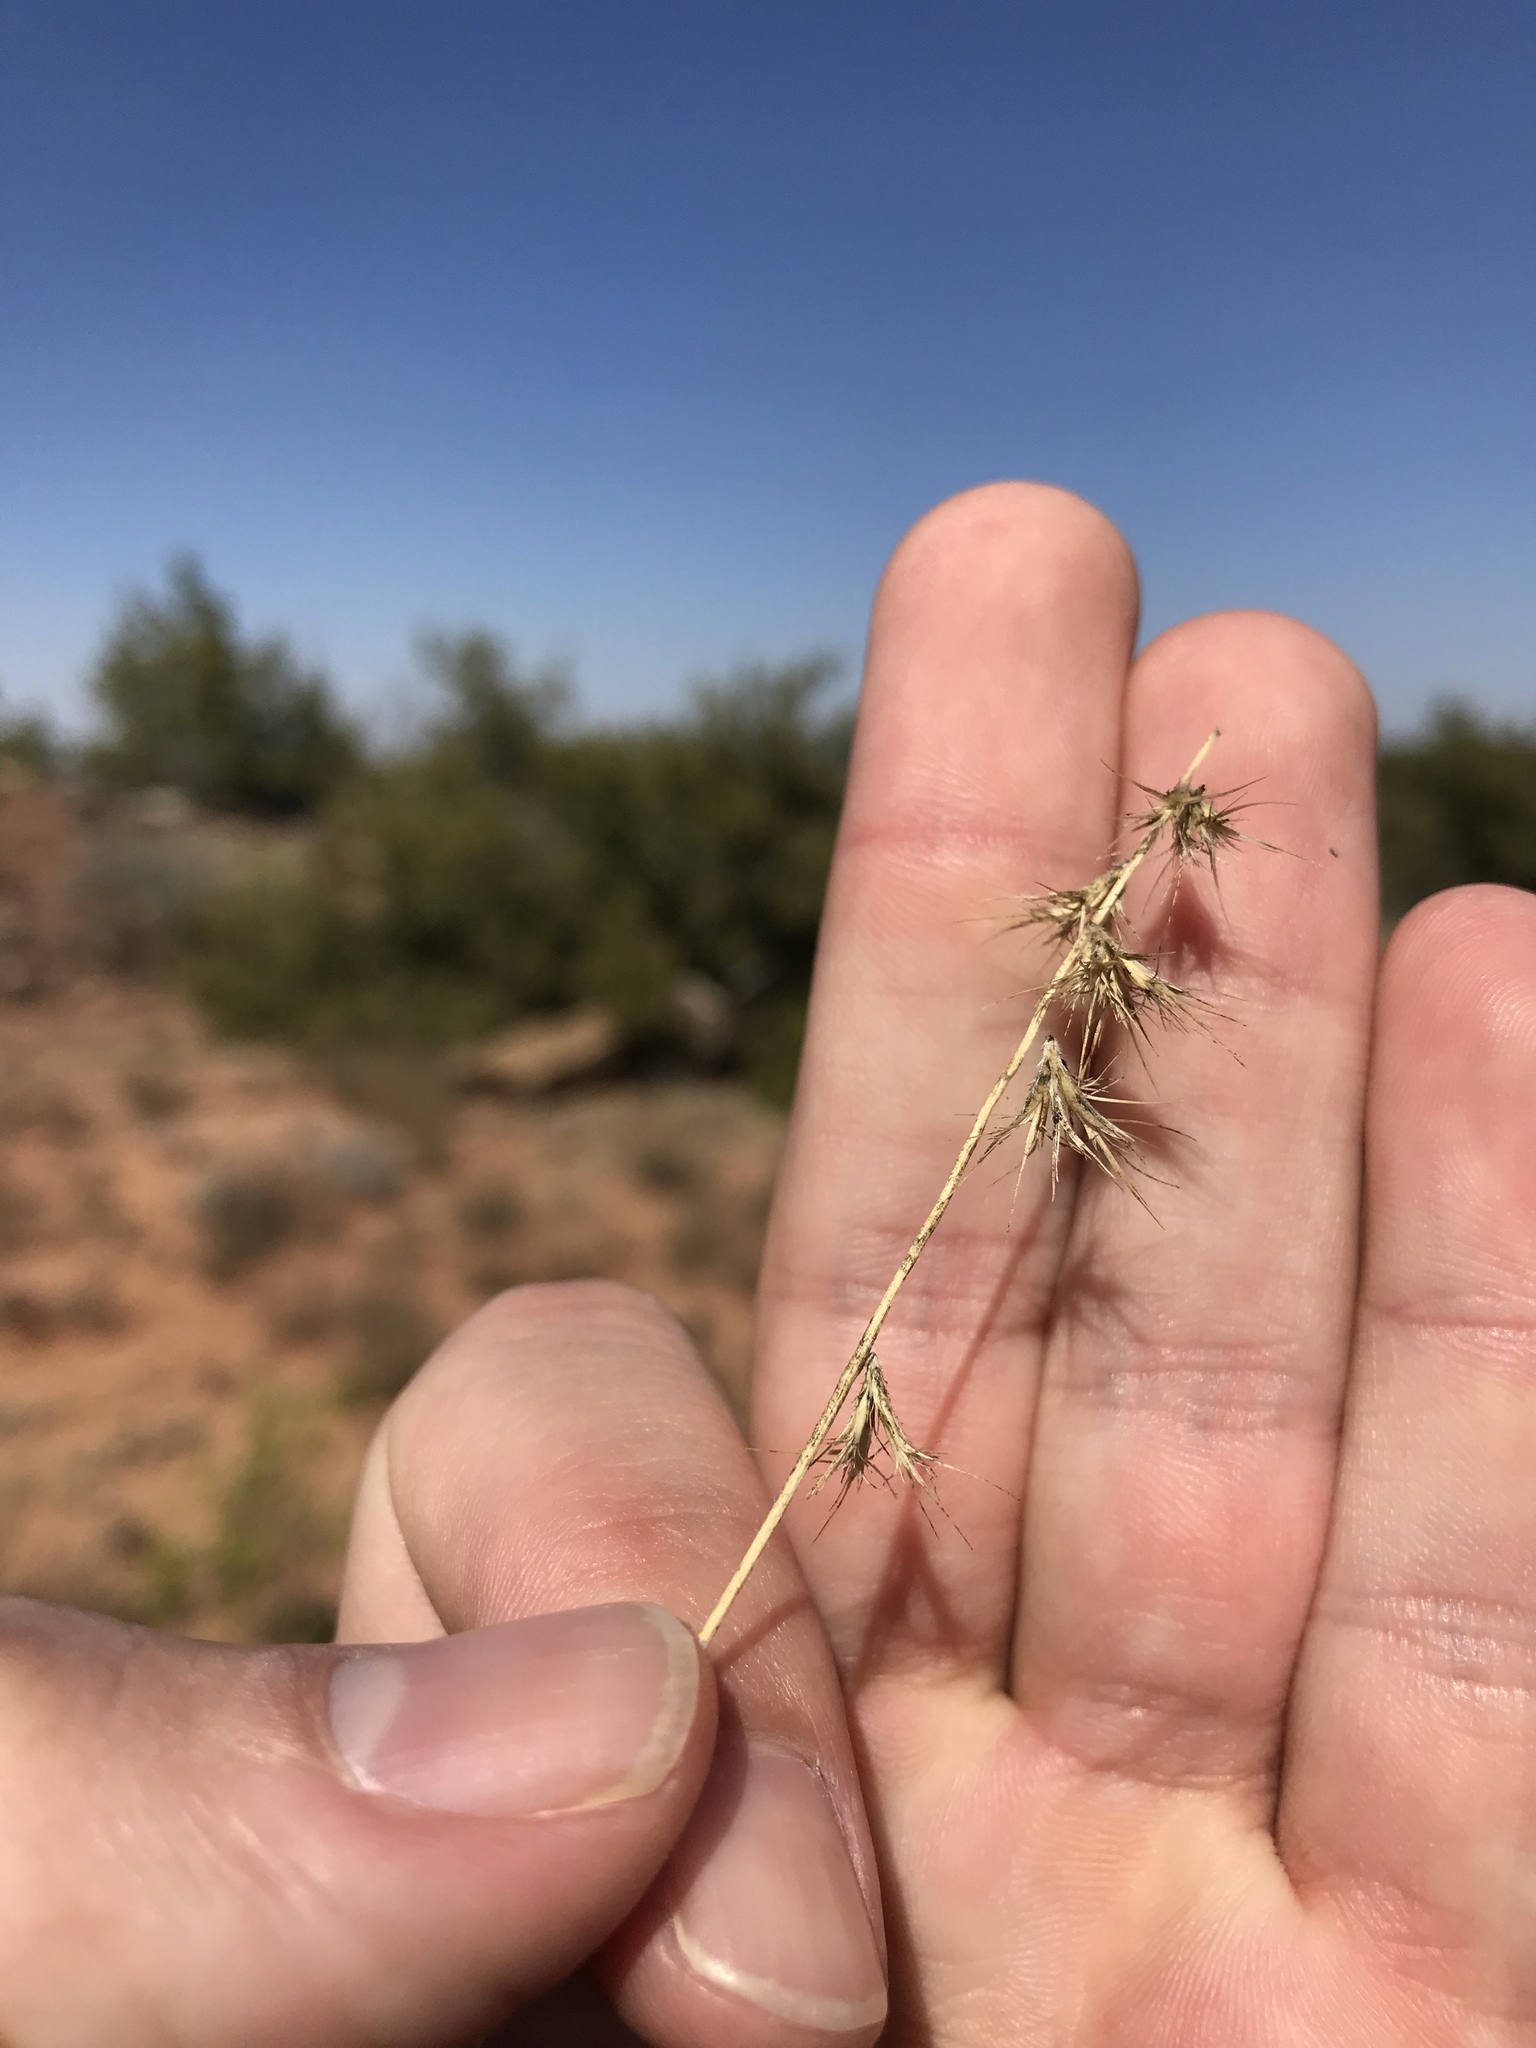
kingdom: Plantae
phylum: Tracheophyta
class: Liliopsida
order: Poales
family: Poaceae
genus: Bouteloua
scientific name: Bouteloua rigidiseta
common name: Texas grama
